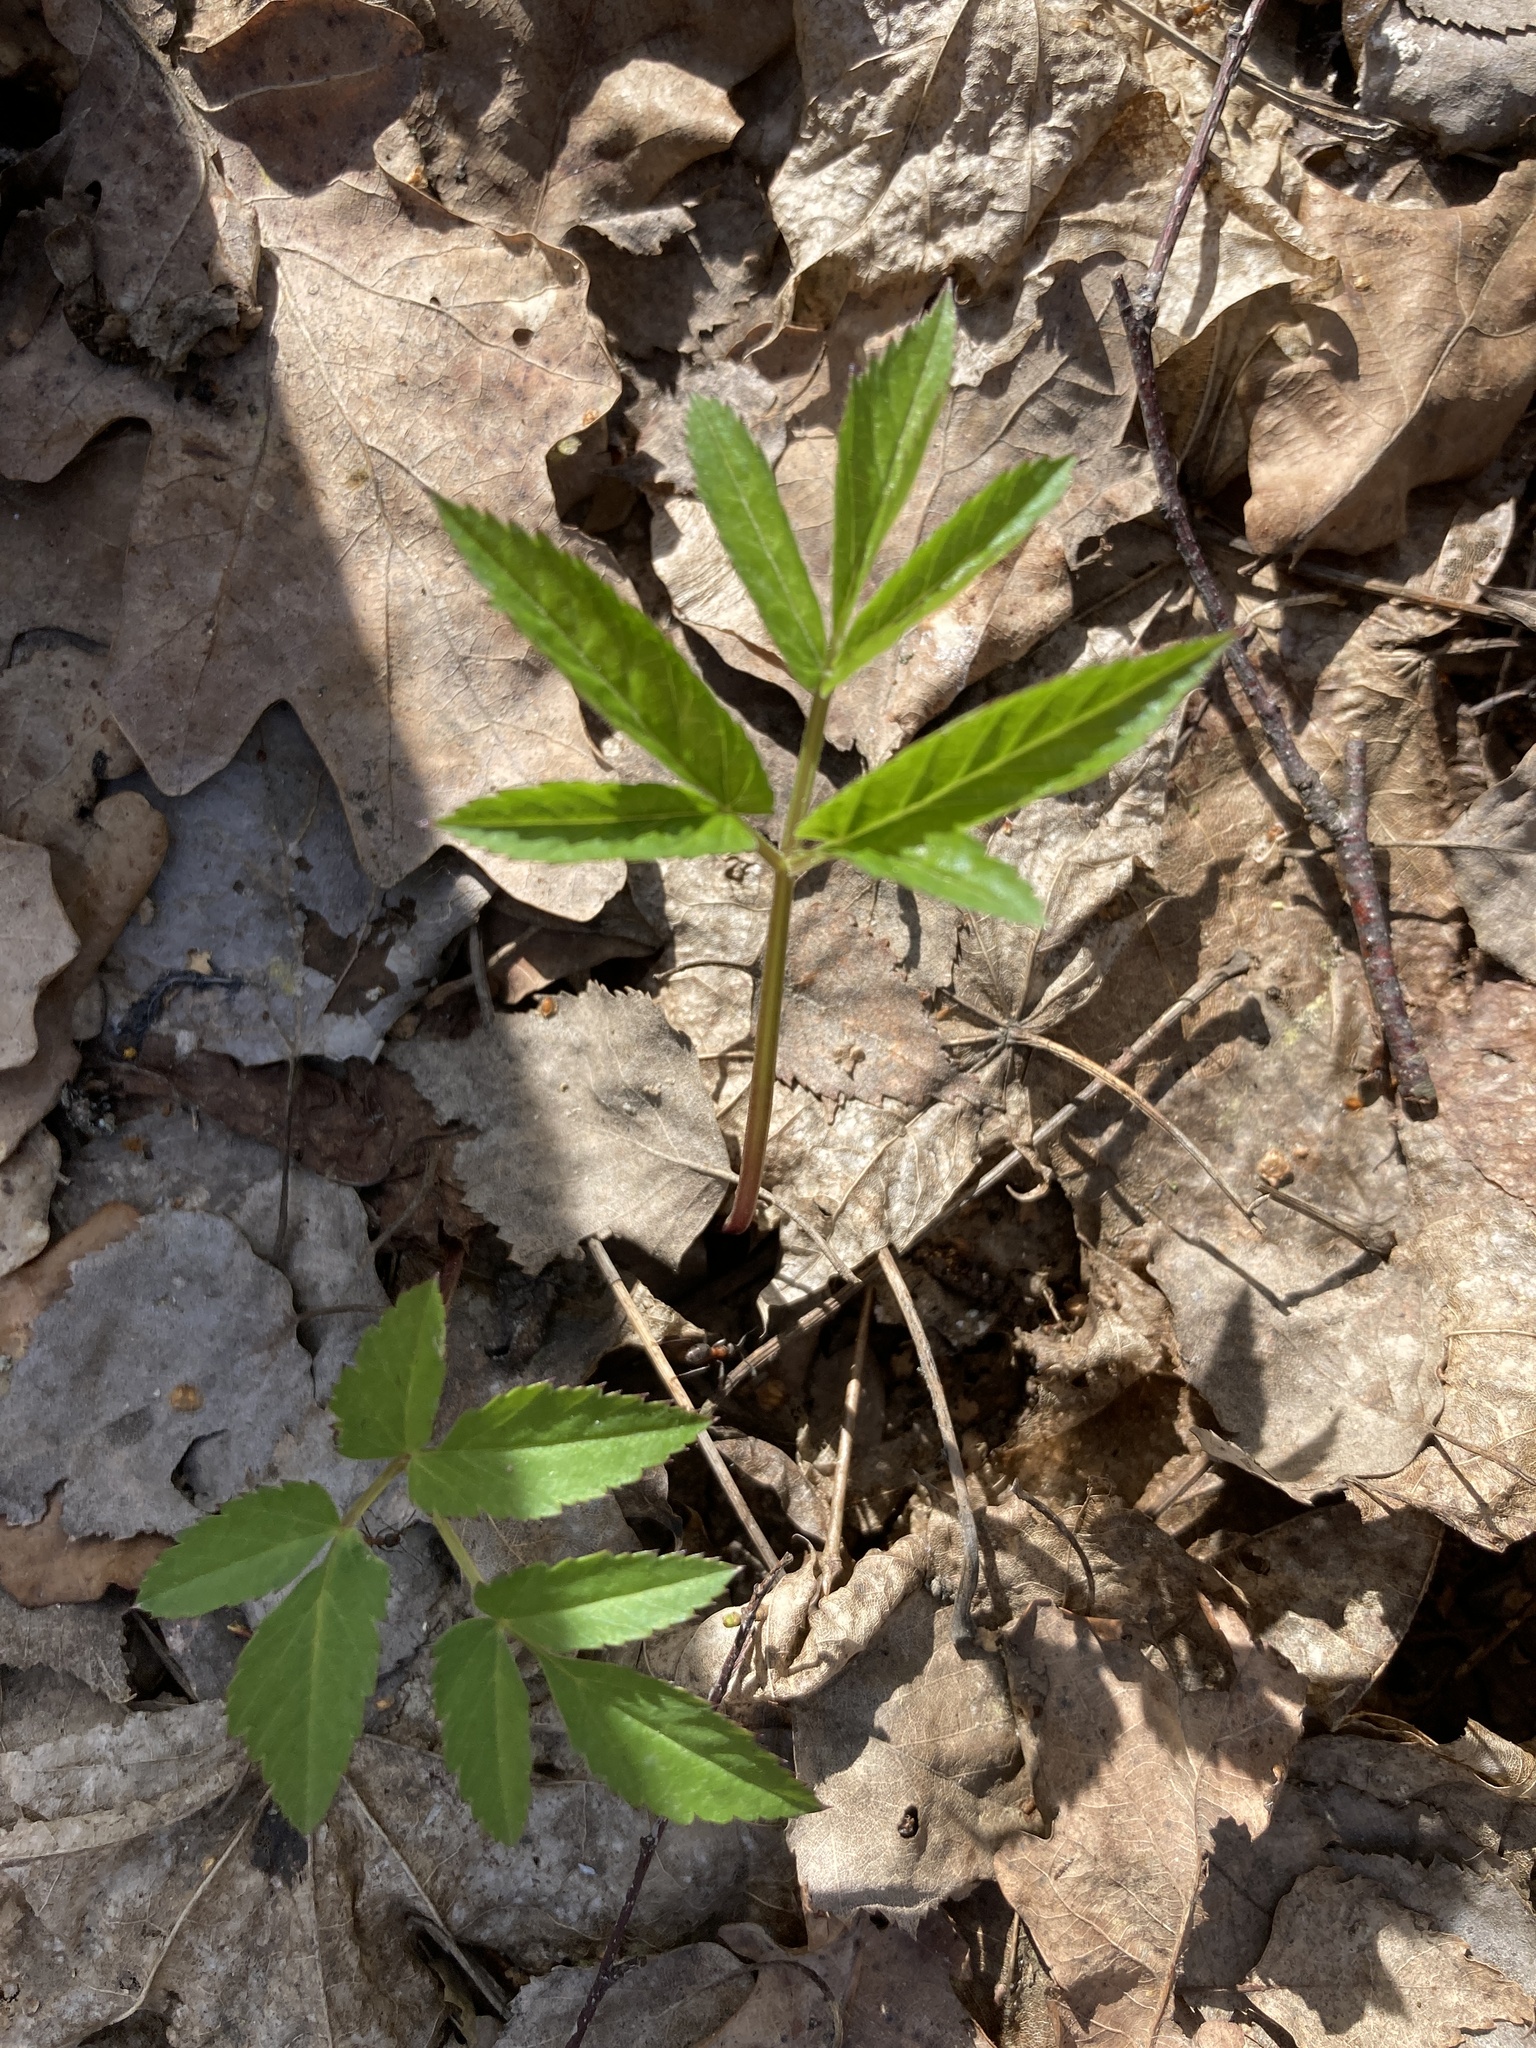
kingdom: Plantae
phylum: Tracheophyta
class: Magnoliopsida
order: Apiales
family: Apiaceae
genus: Aegopodium
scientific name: Aegopodium podagraria
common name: Ground-elder
